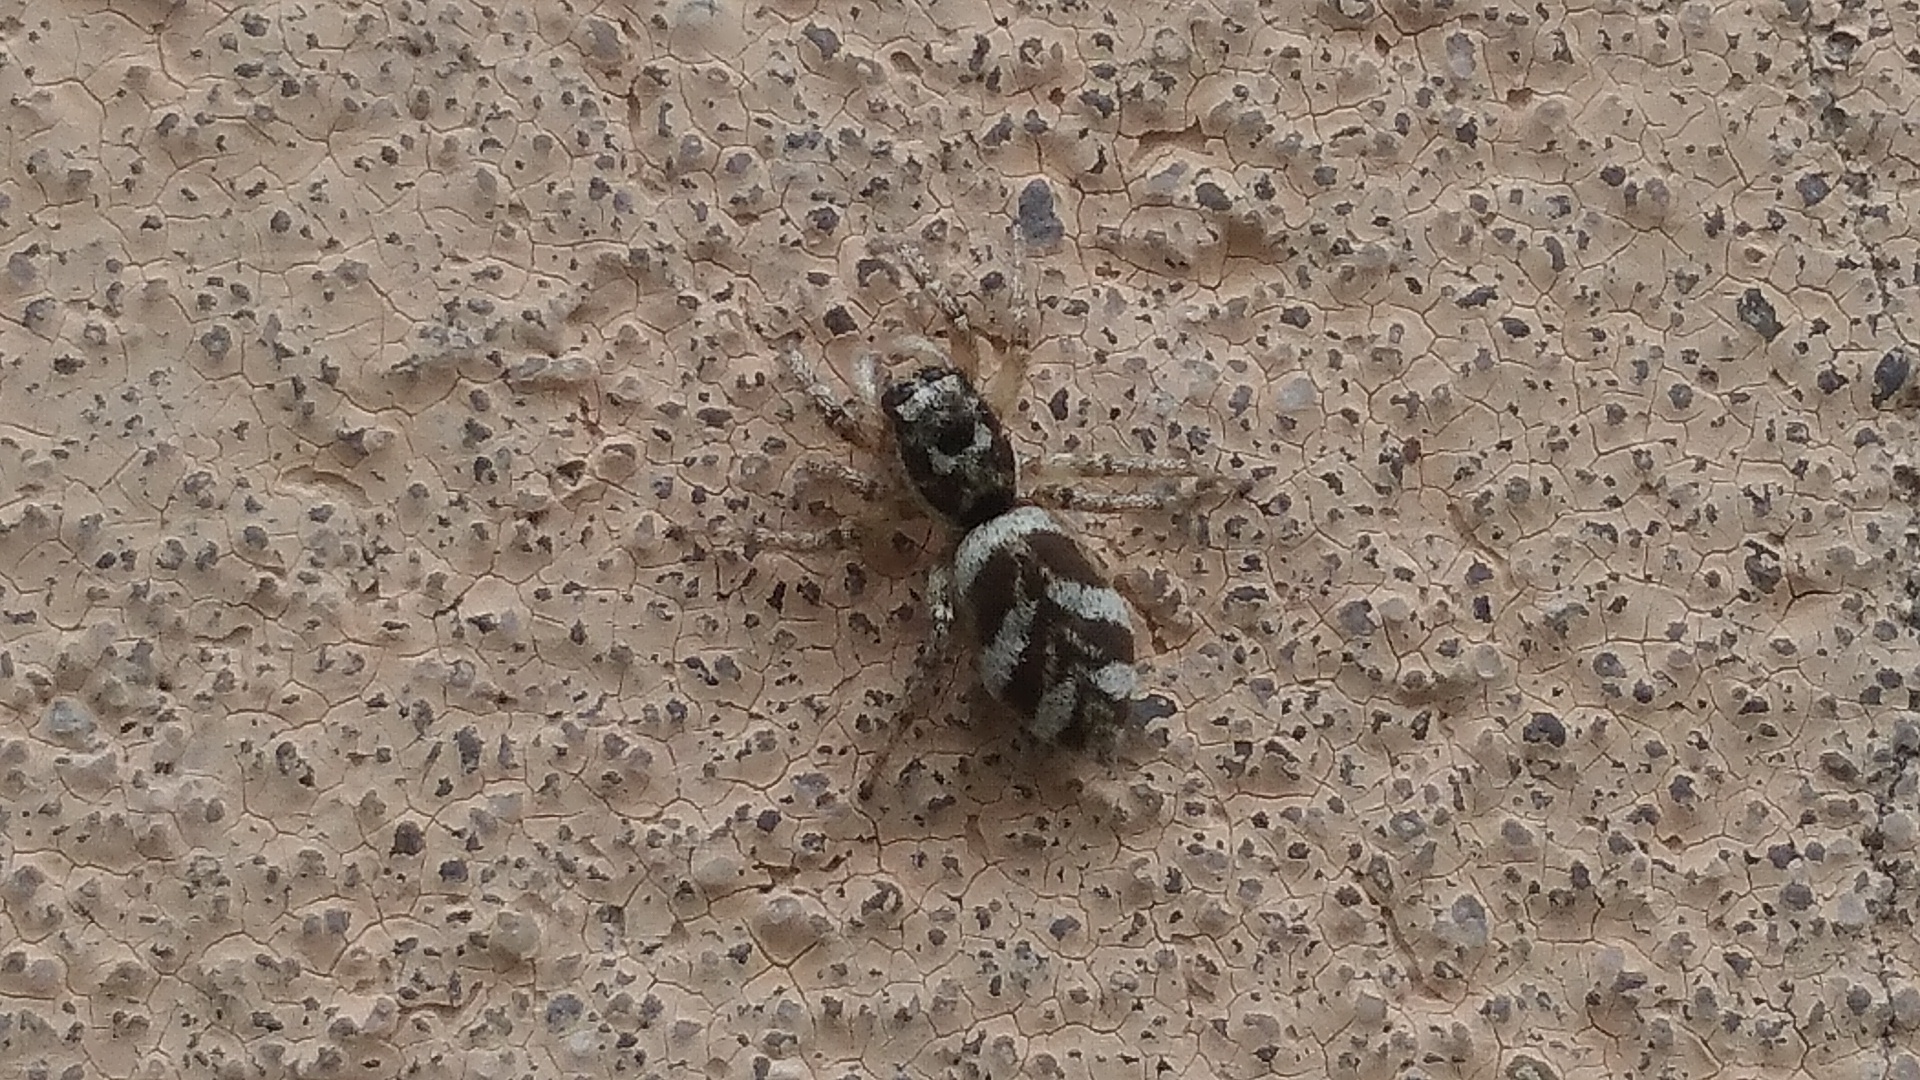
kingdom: Animalia
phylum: Arthropoda
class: Arachnida
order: Araneae
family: Salticidae
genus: Salticus
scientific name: Salticus scenicus
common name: Zebra jumper
